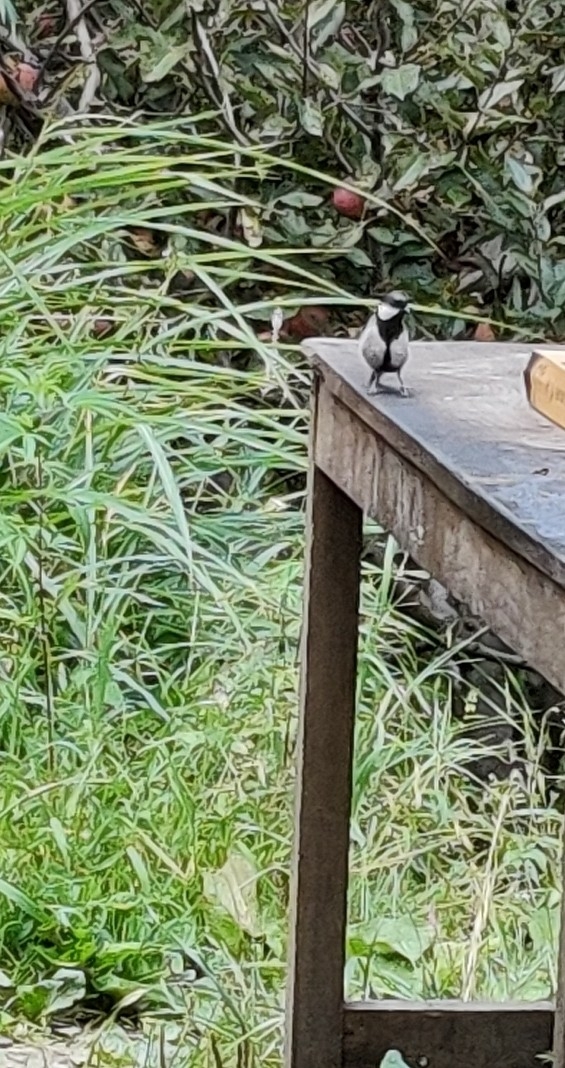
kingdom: Animalia
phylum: Chordata
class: Aves
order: Passeriformes
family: Paridae
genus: Parus
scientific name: Parus cinereus
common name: Cinereous tit
